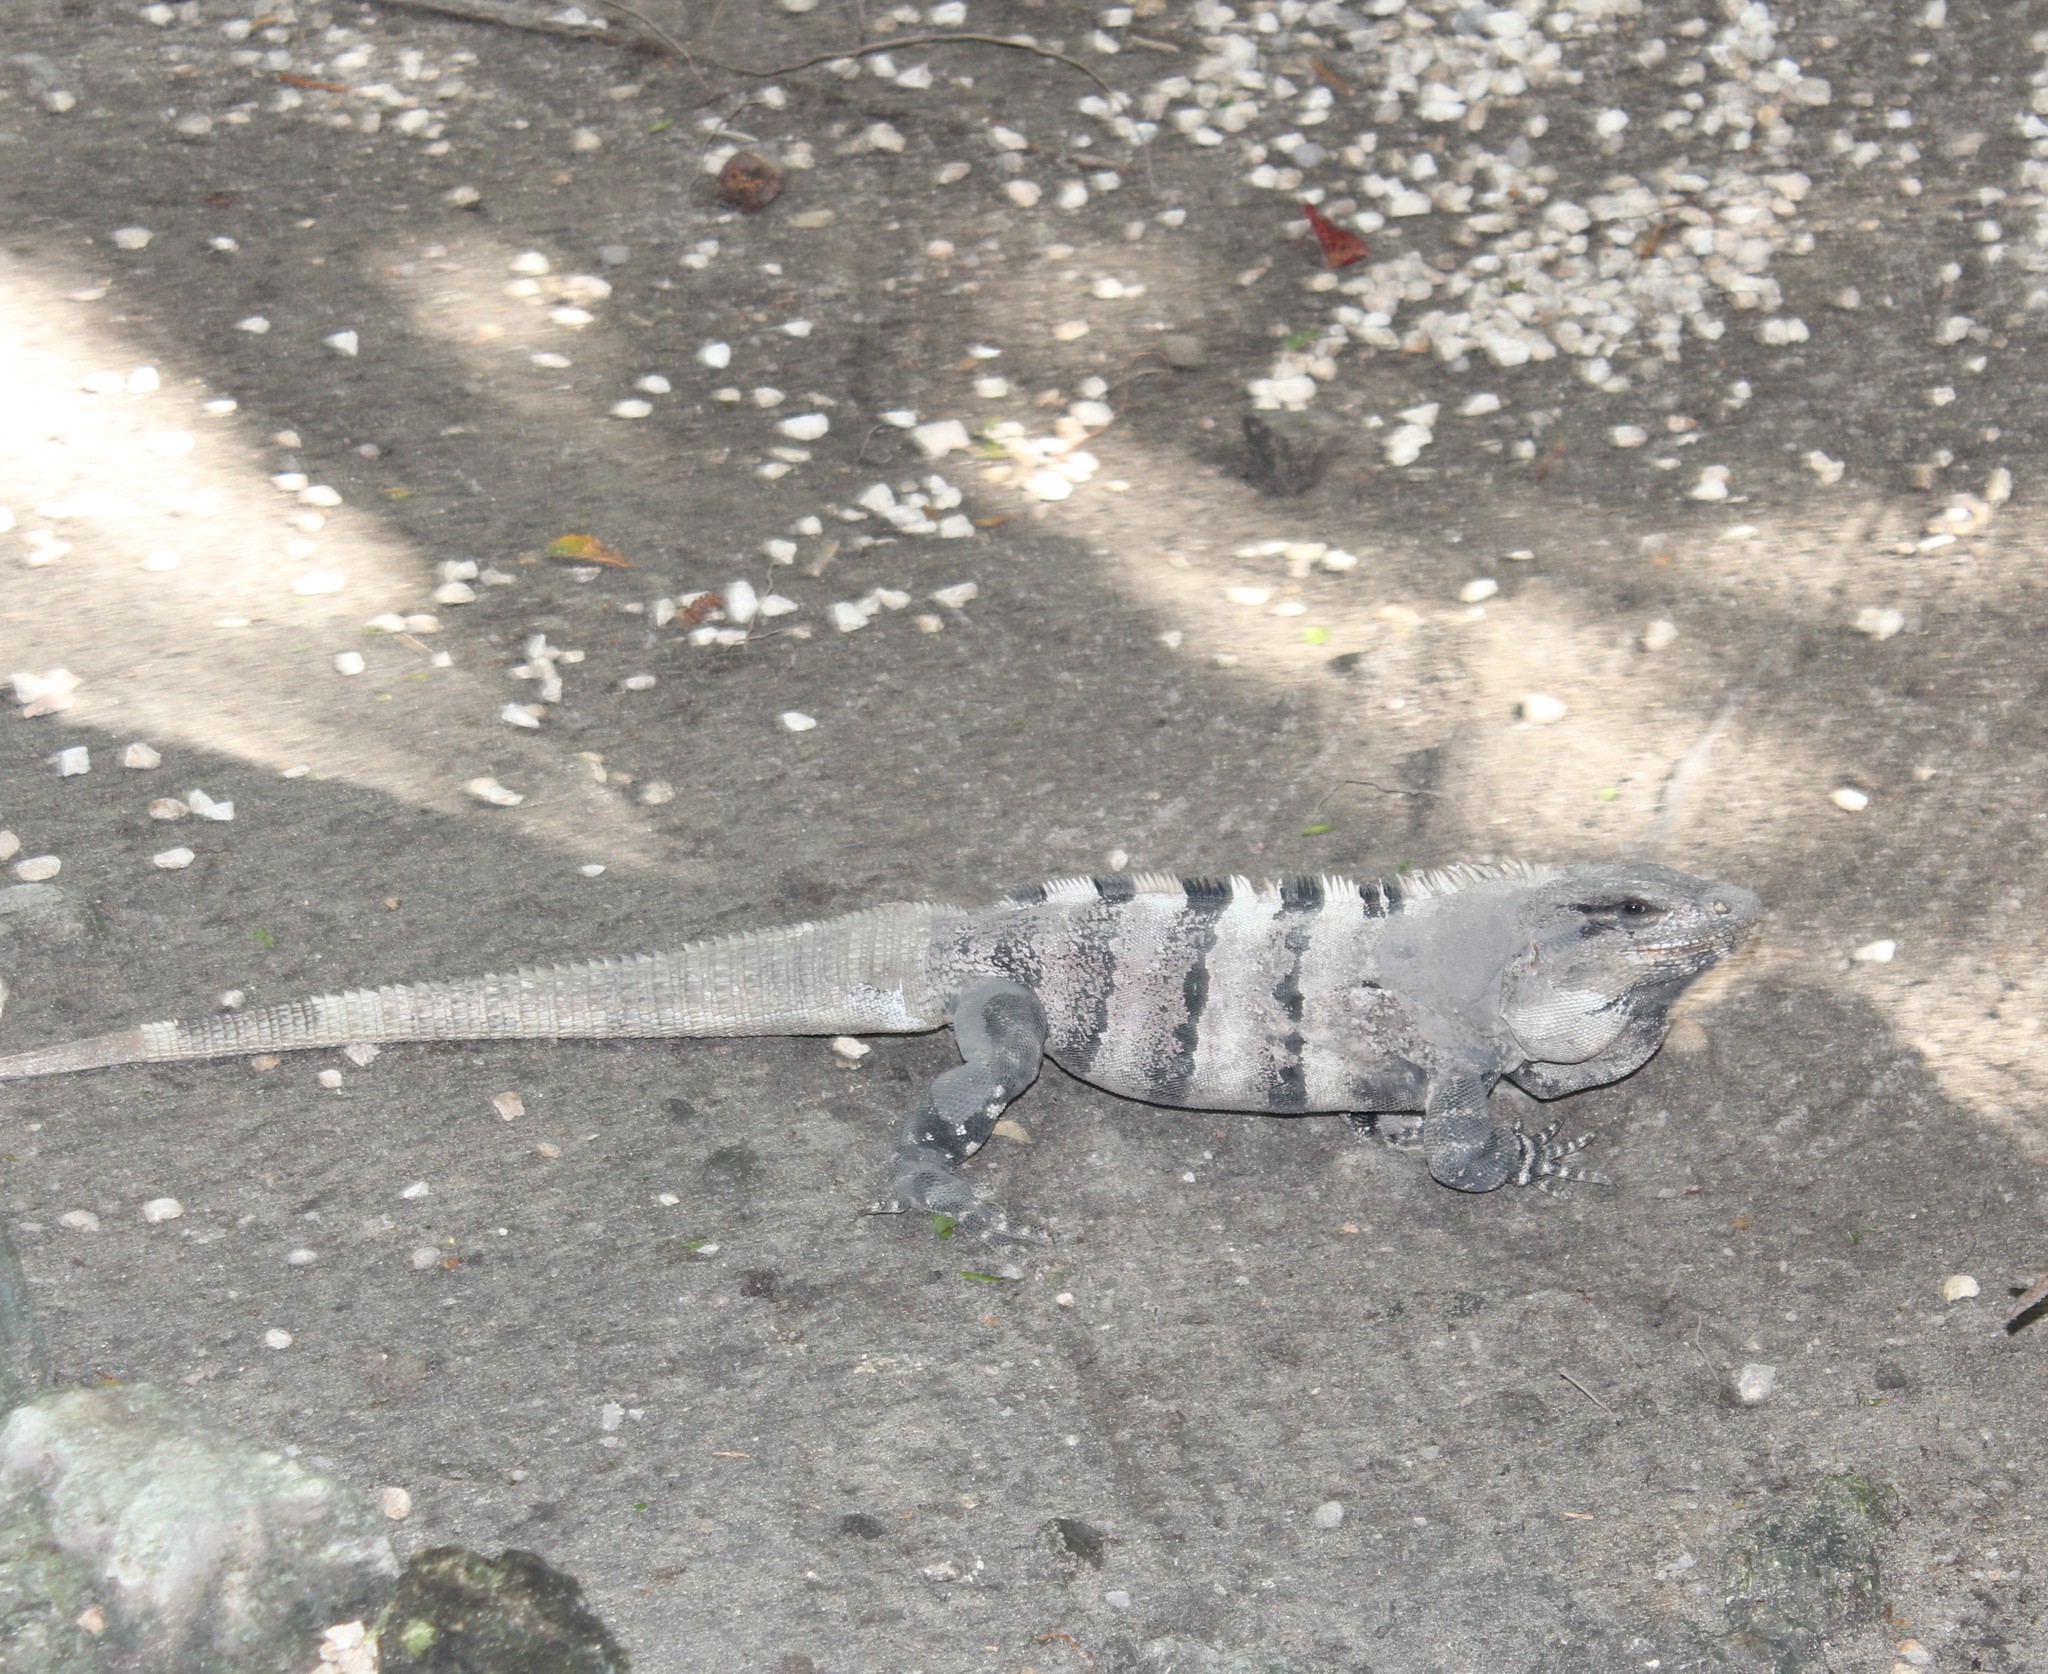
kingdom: Animalia
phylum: Chordata
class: Squamata
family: Iguanidae
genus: Ctenosaura
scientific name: Ctenosaura similis
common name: Black spiny-tailed iguana
